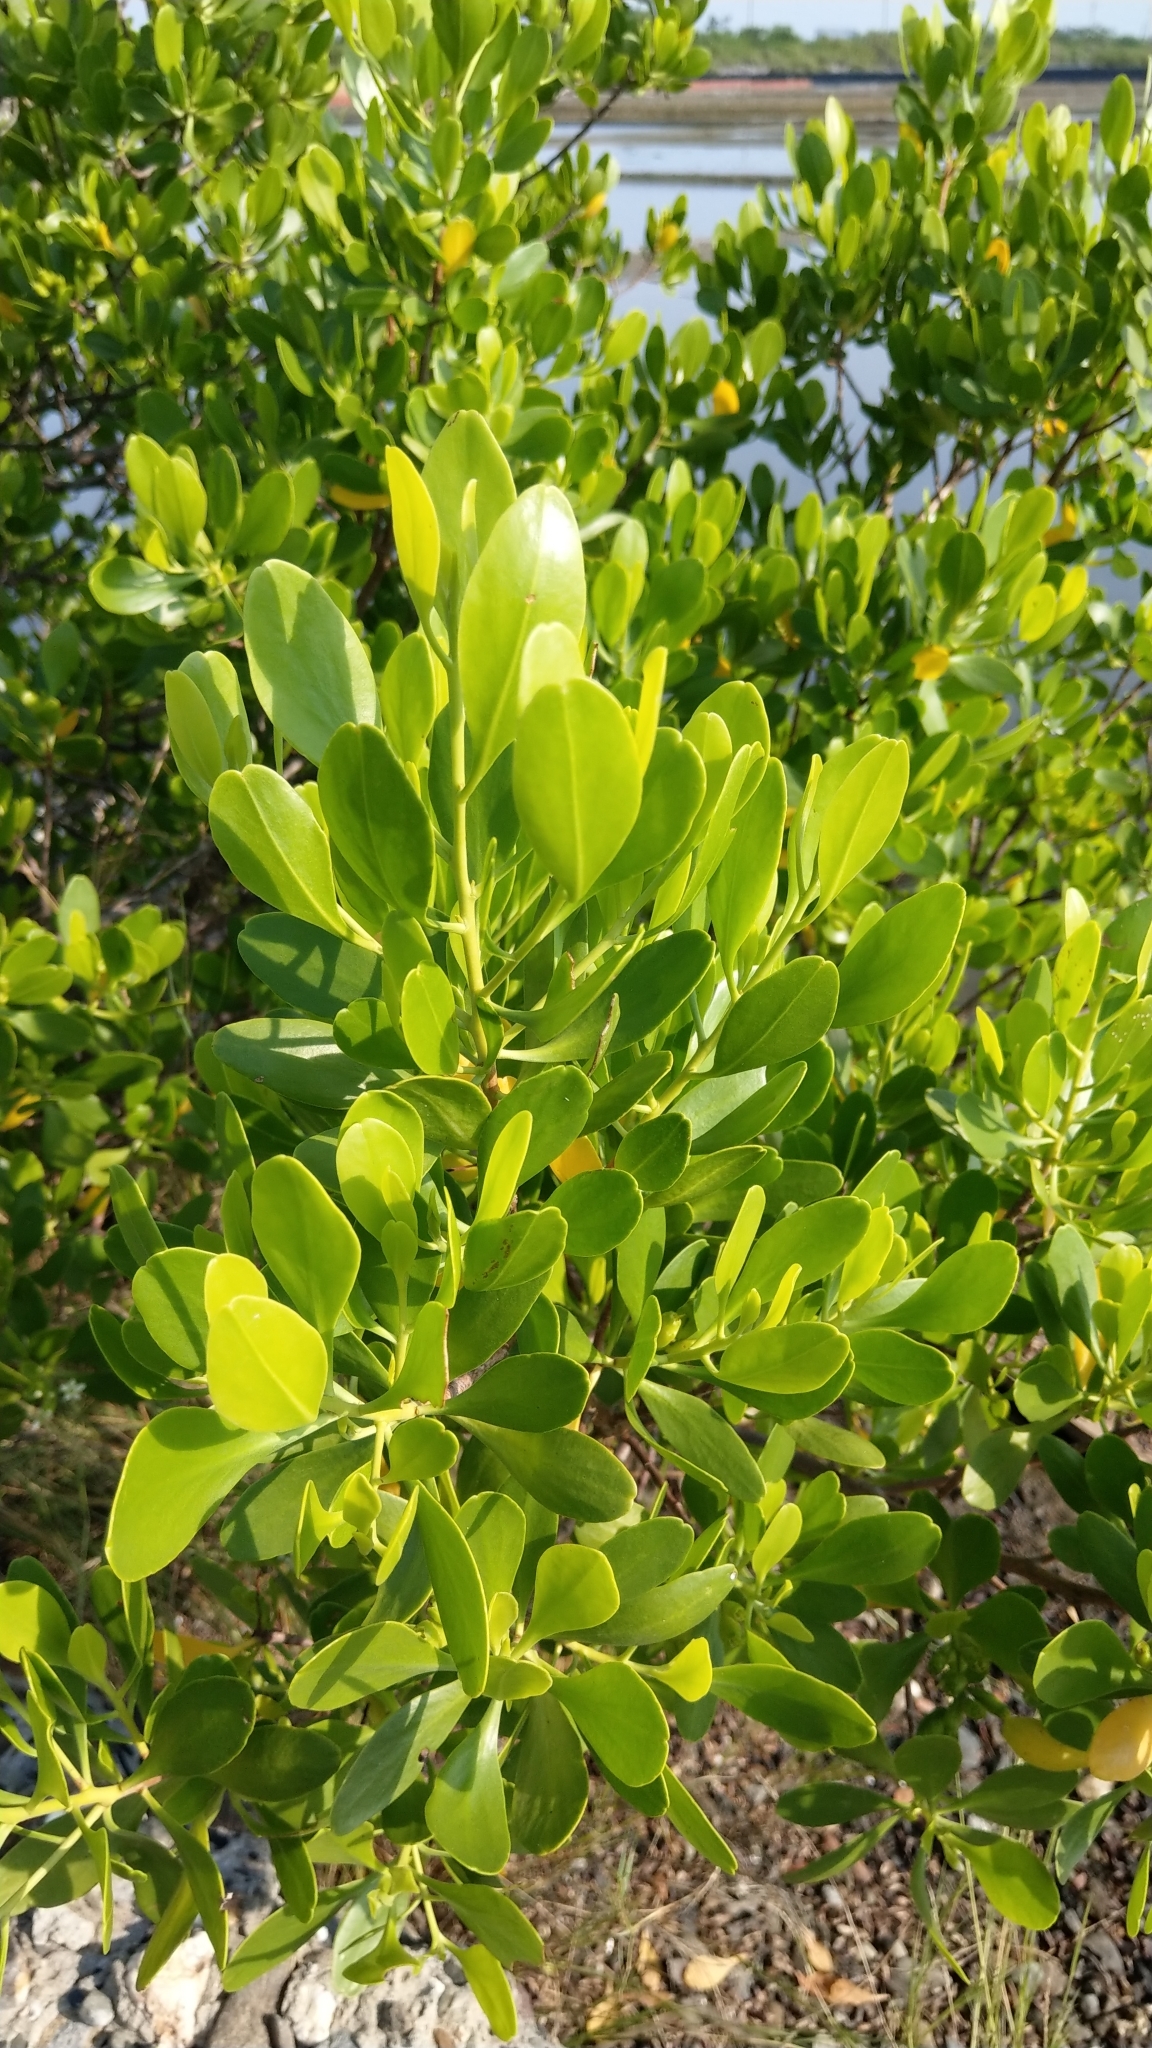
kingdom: Plantae
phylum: Tracheophyta
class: Magnoliopsida
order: Myrtales
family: Combretaceae
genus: Lumnitzera
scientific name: Lumnitzera racemosa
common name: White-flowered black mangrove
